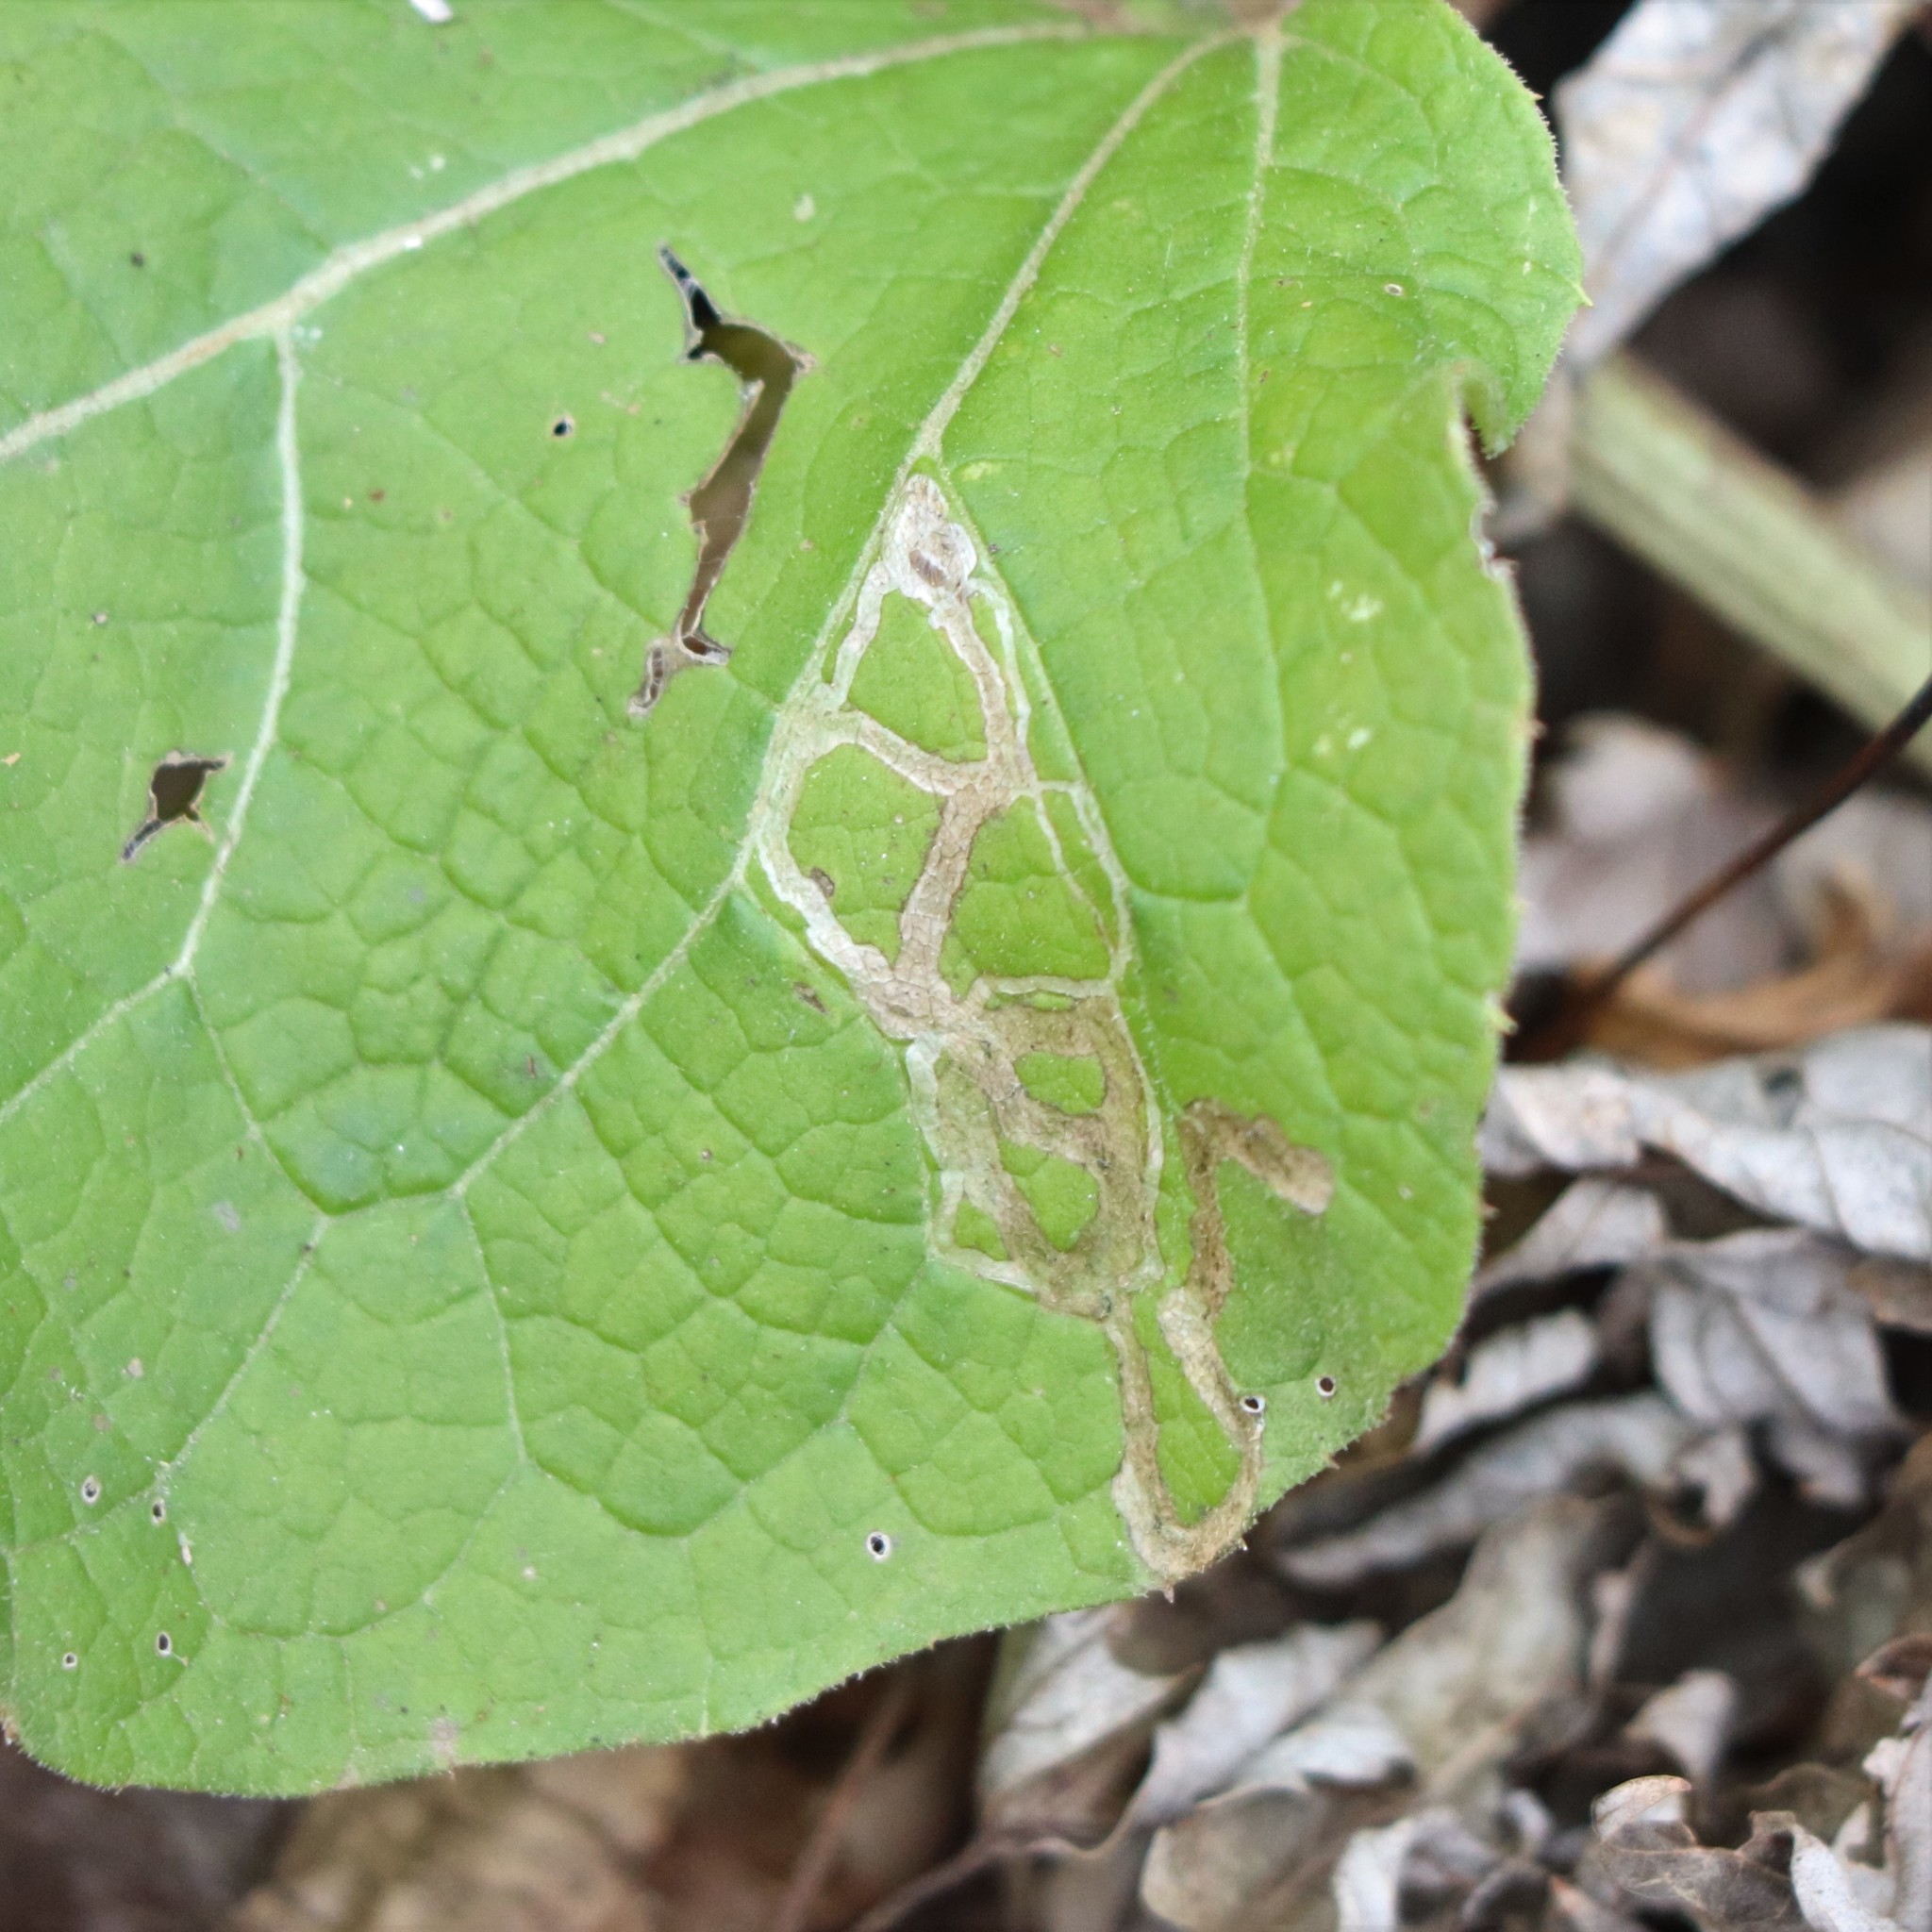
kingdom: Animalia
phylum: Arthropoda
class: Insecta
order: Diptera
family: Agromyzidae
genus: Liriomyza
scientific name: Liriomyza arctii
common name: Burdock leafminer
